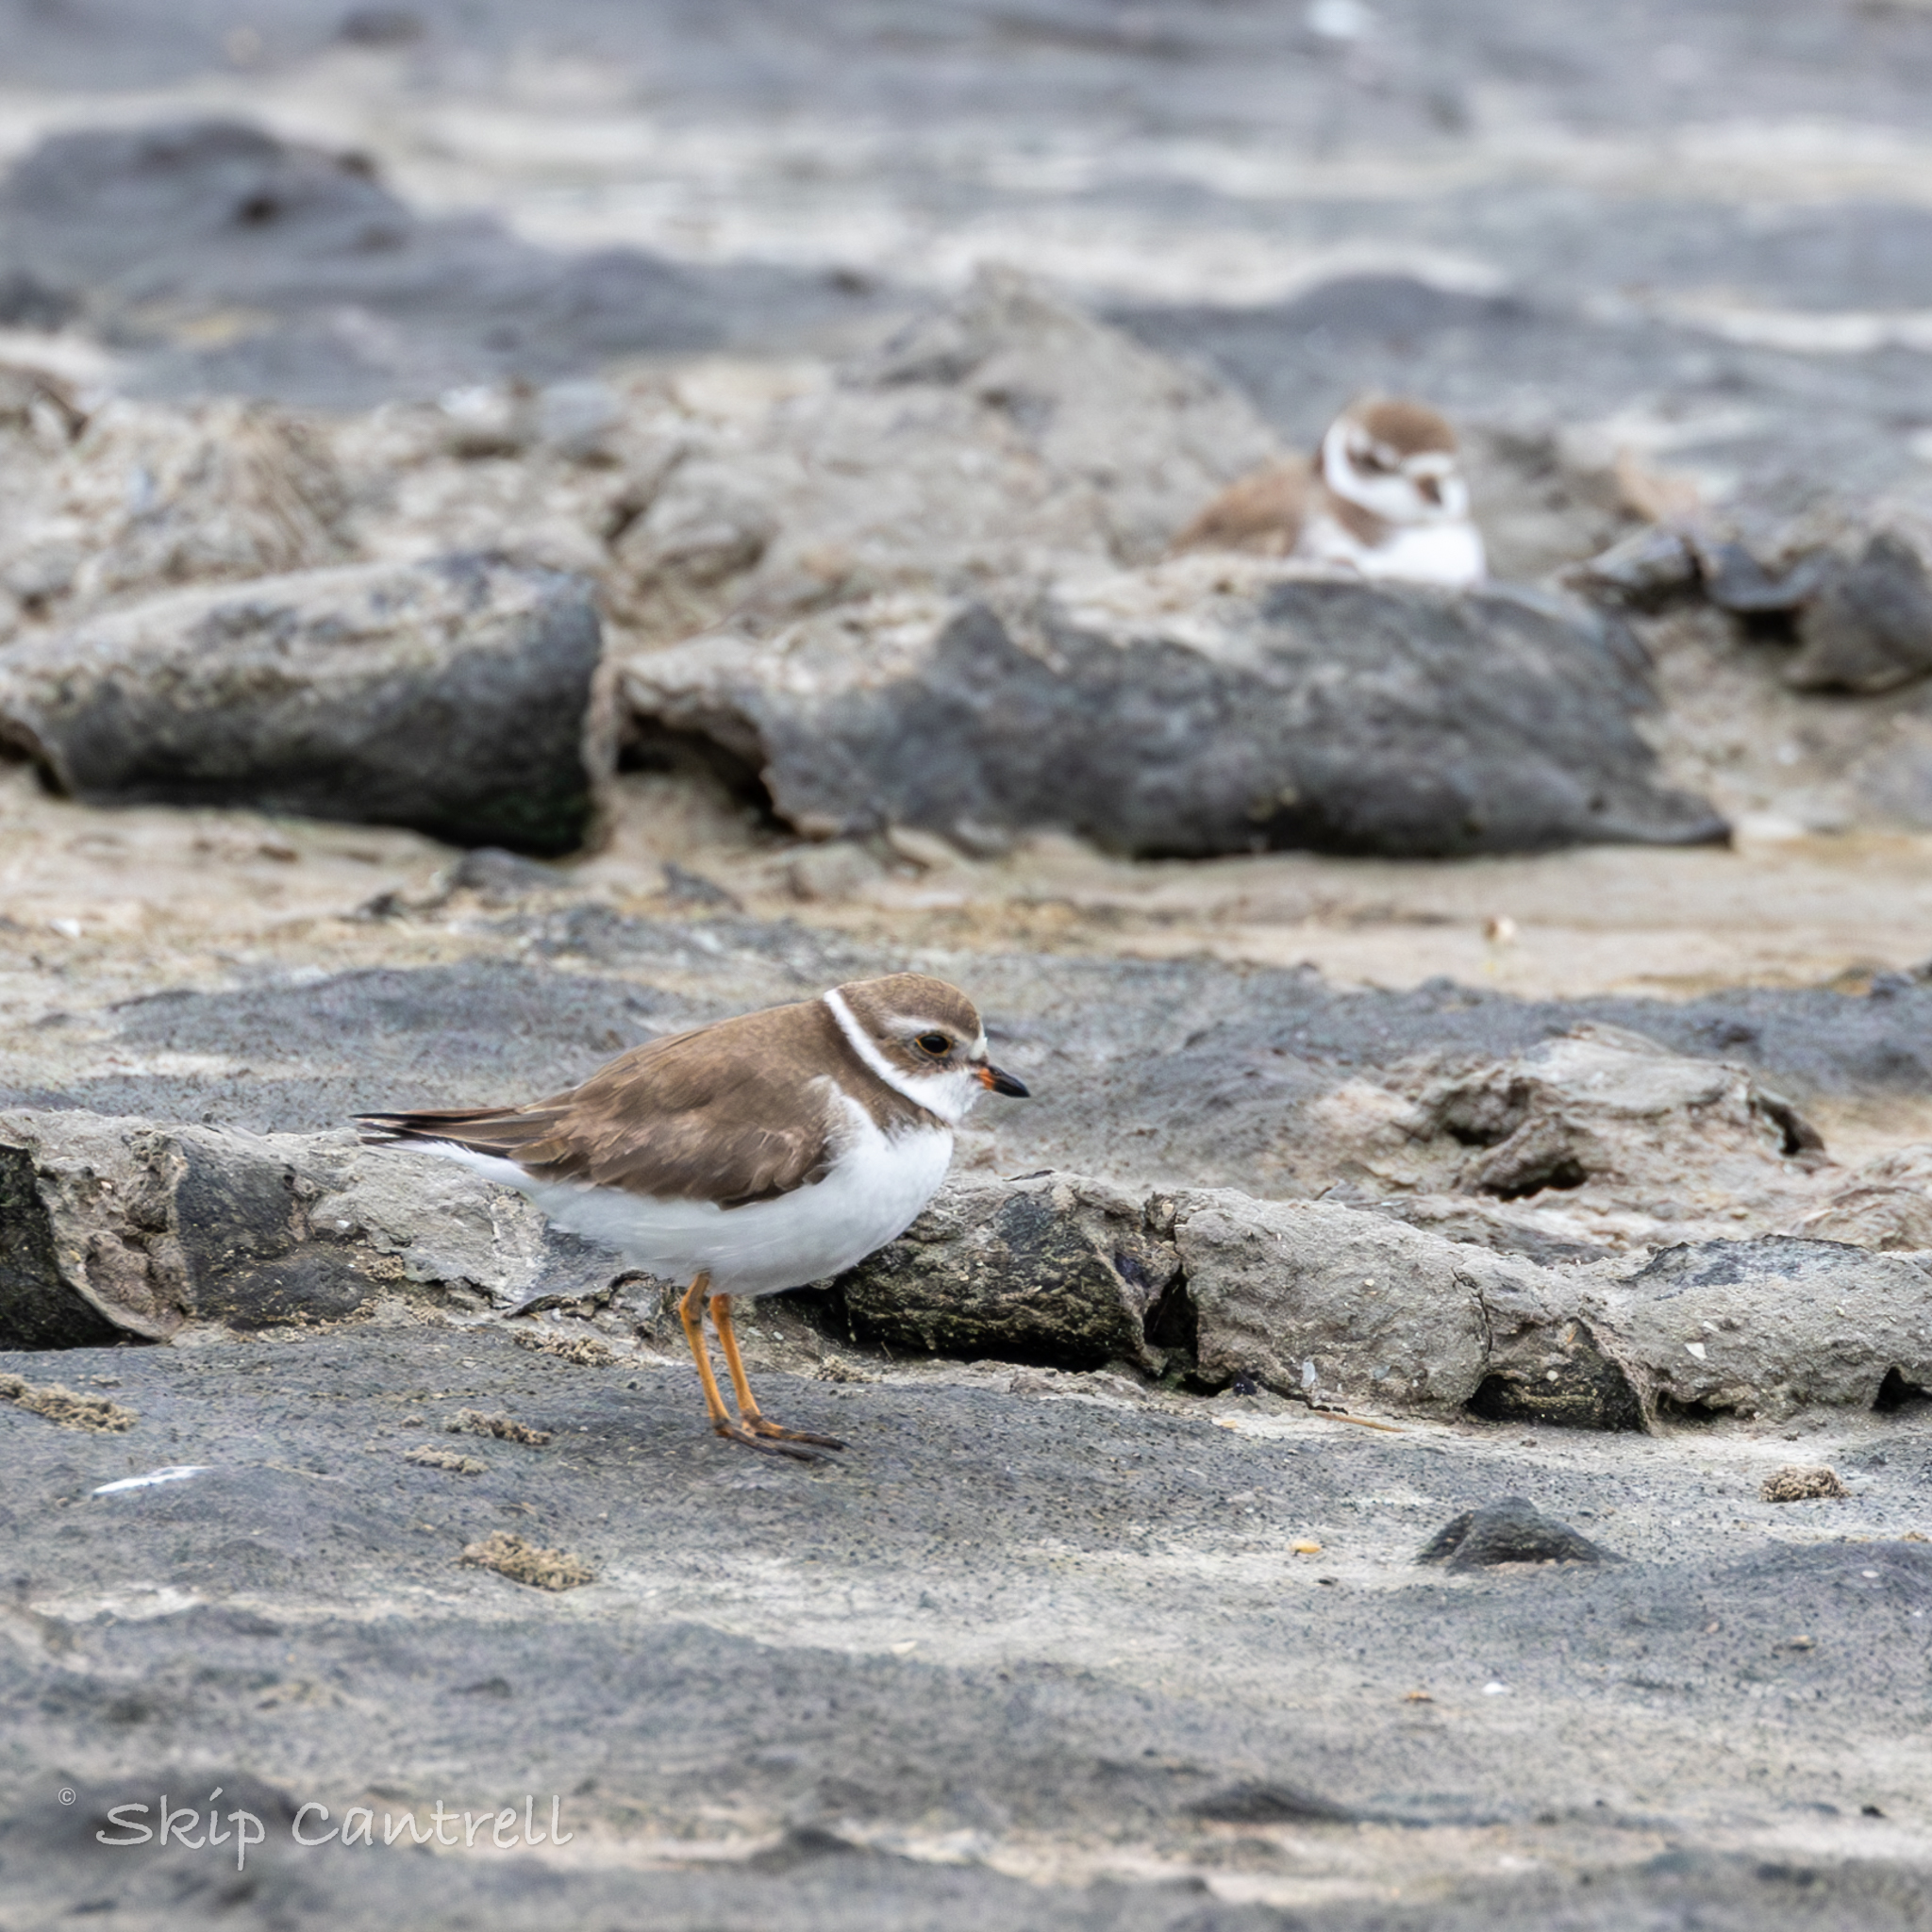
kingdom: Animalia
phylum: Chordata
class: Aves
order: Charadriiformes
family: Charadriidae
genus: Charadrius
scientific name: Charadrius semipalmatus
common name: Semipalmated plover
